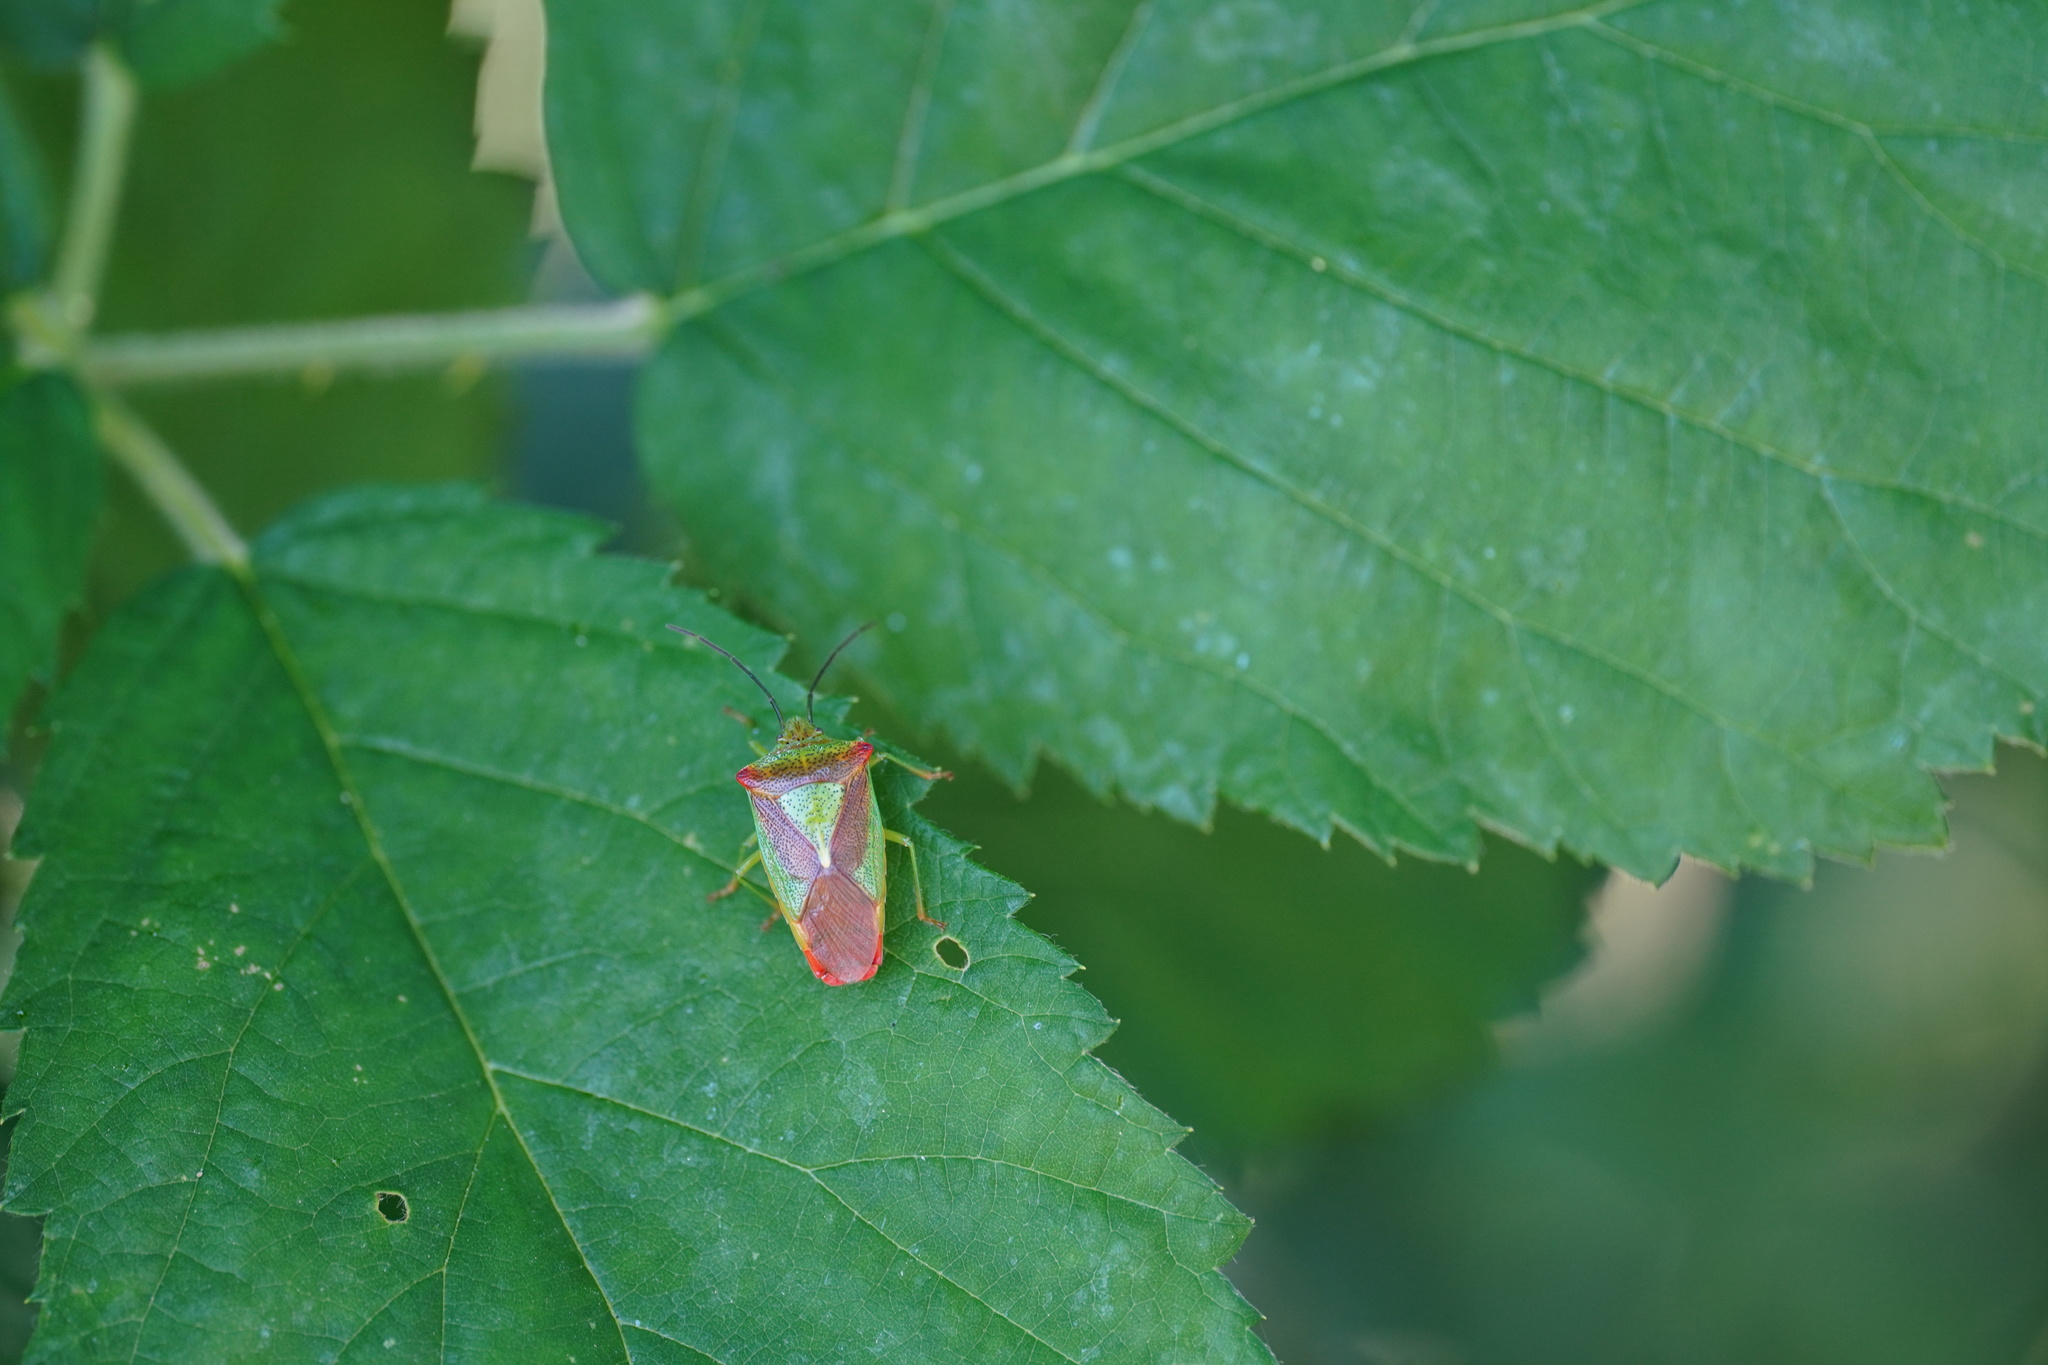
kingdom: Animalia
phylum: Arthropoda
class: Insecta
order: Hemiptera
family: Acanthosomatidae
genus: Acanthosoma
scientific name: Acanthosoma haemorrhoidale
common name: Hawthorn shieldbug
